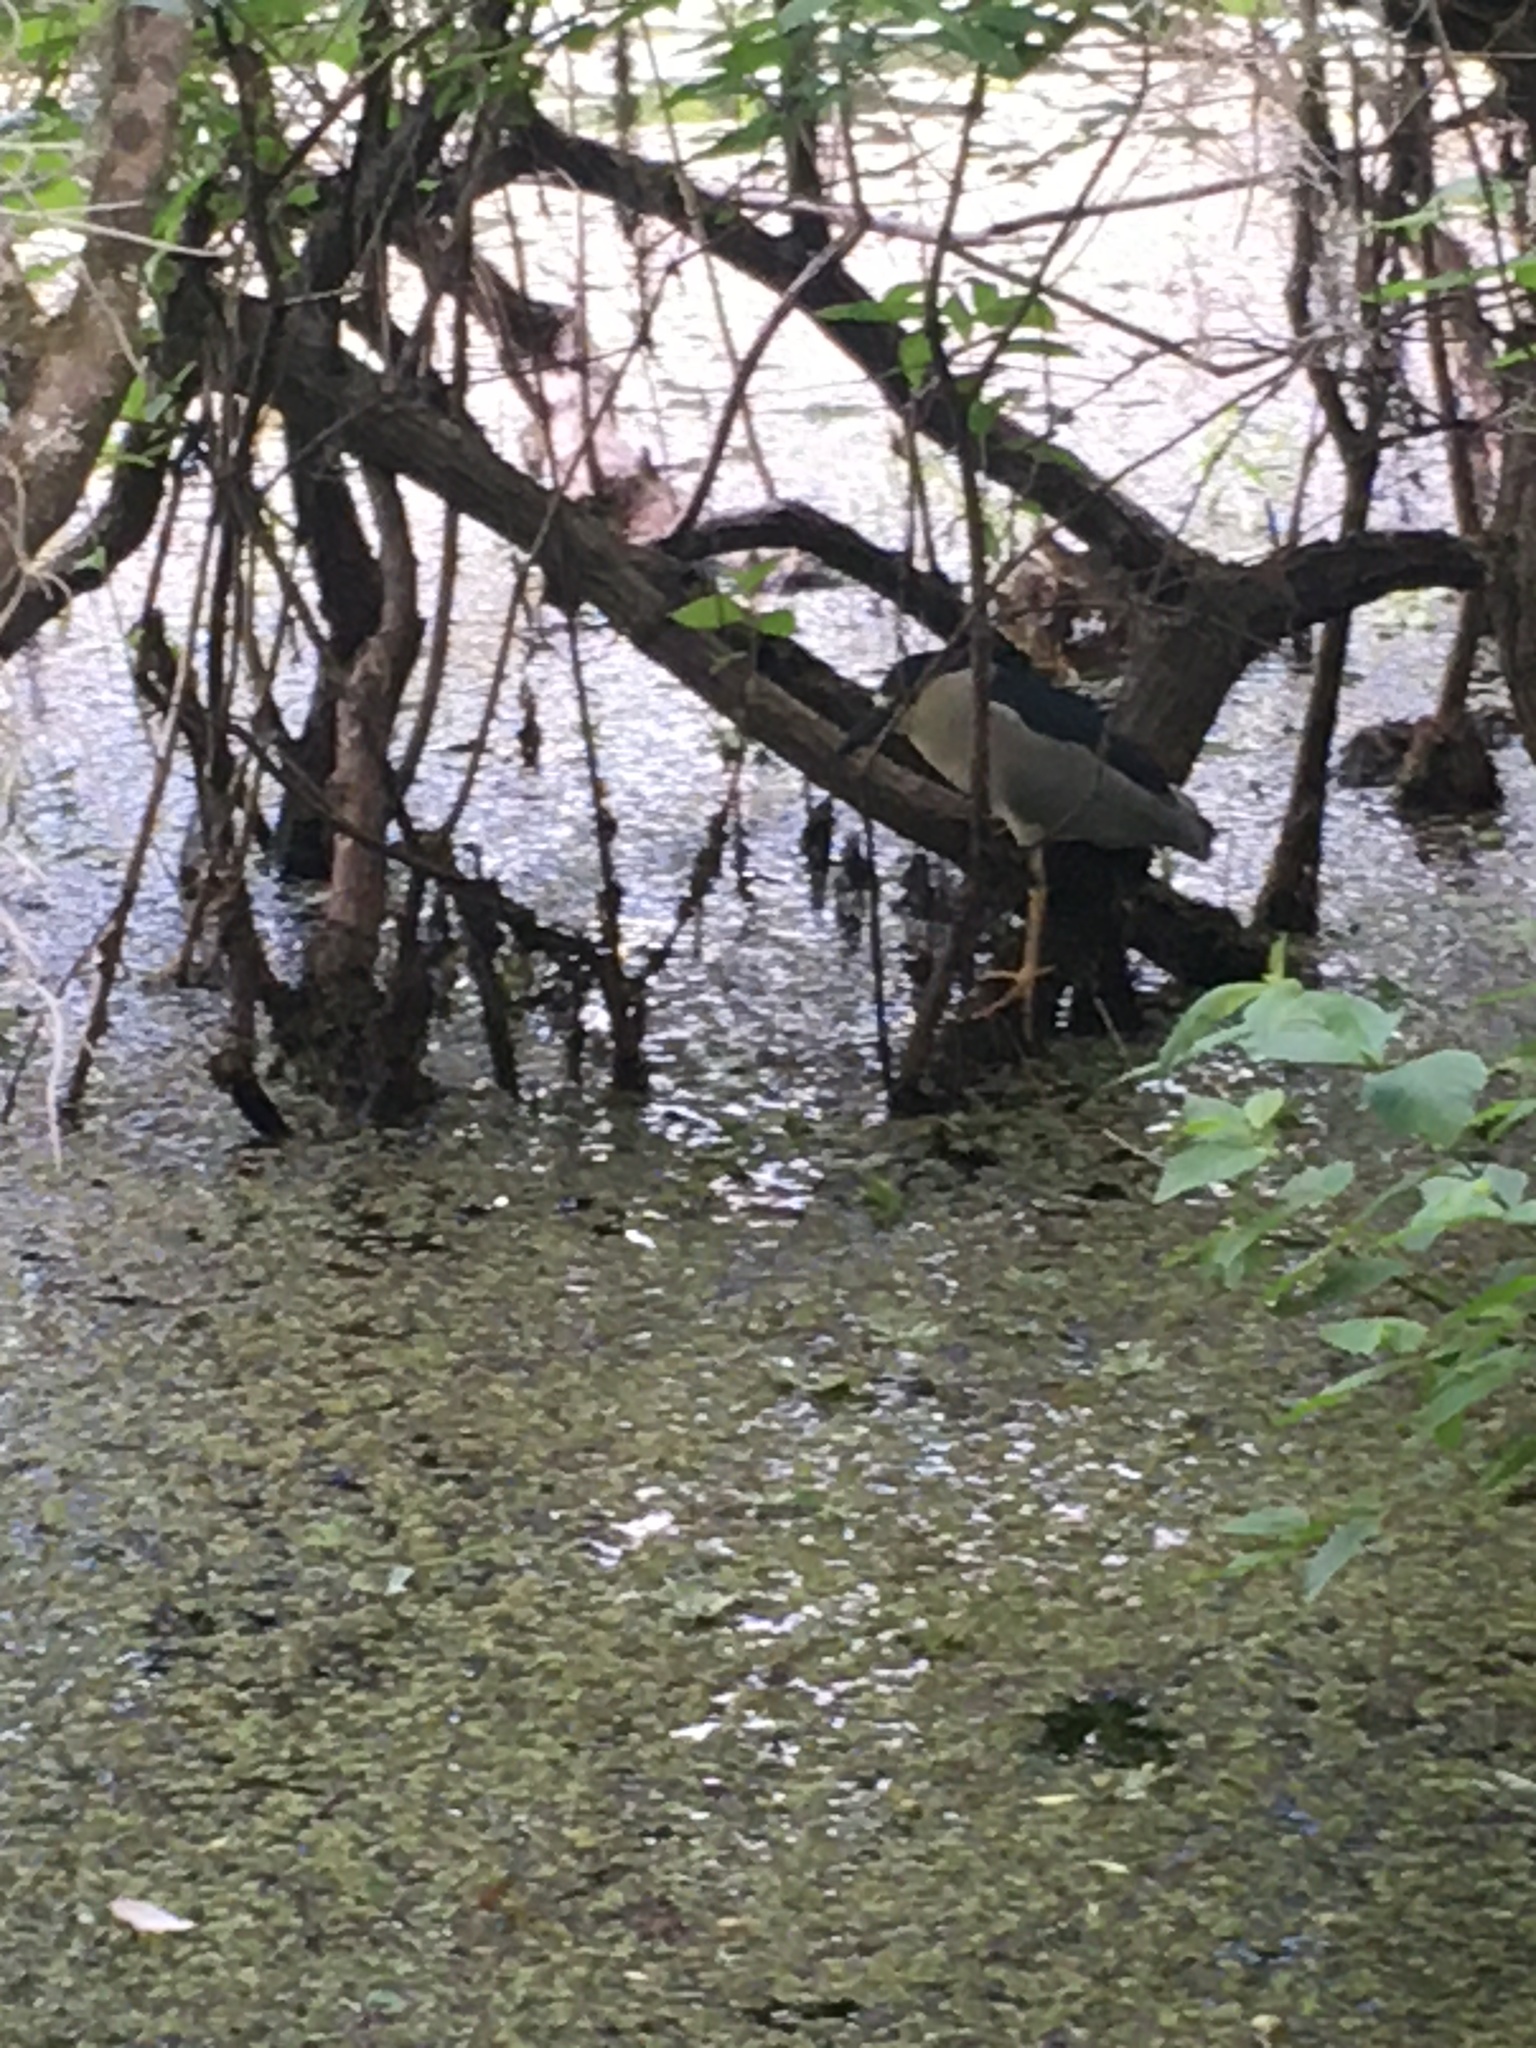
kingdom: Animalia
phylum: Chordata
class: Aves
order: Pelecaniformes
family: Ardeidae
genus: Nycticorax
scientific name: Nycticorax nycticorax
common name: Black-crowned night heron
